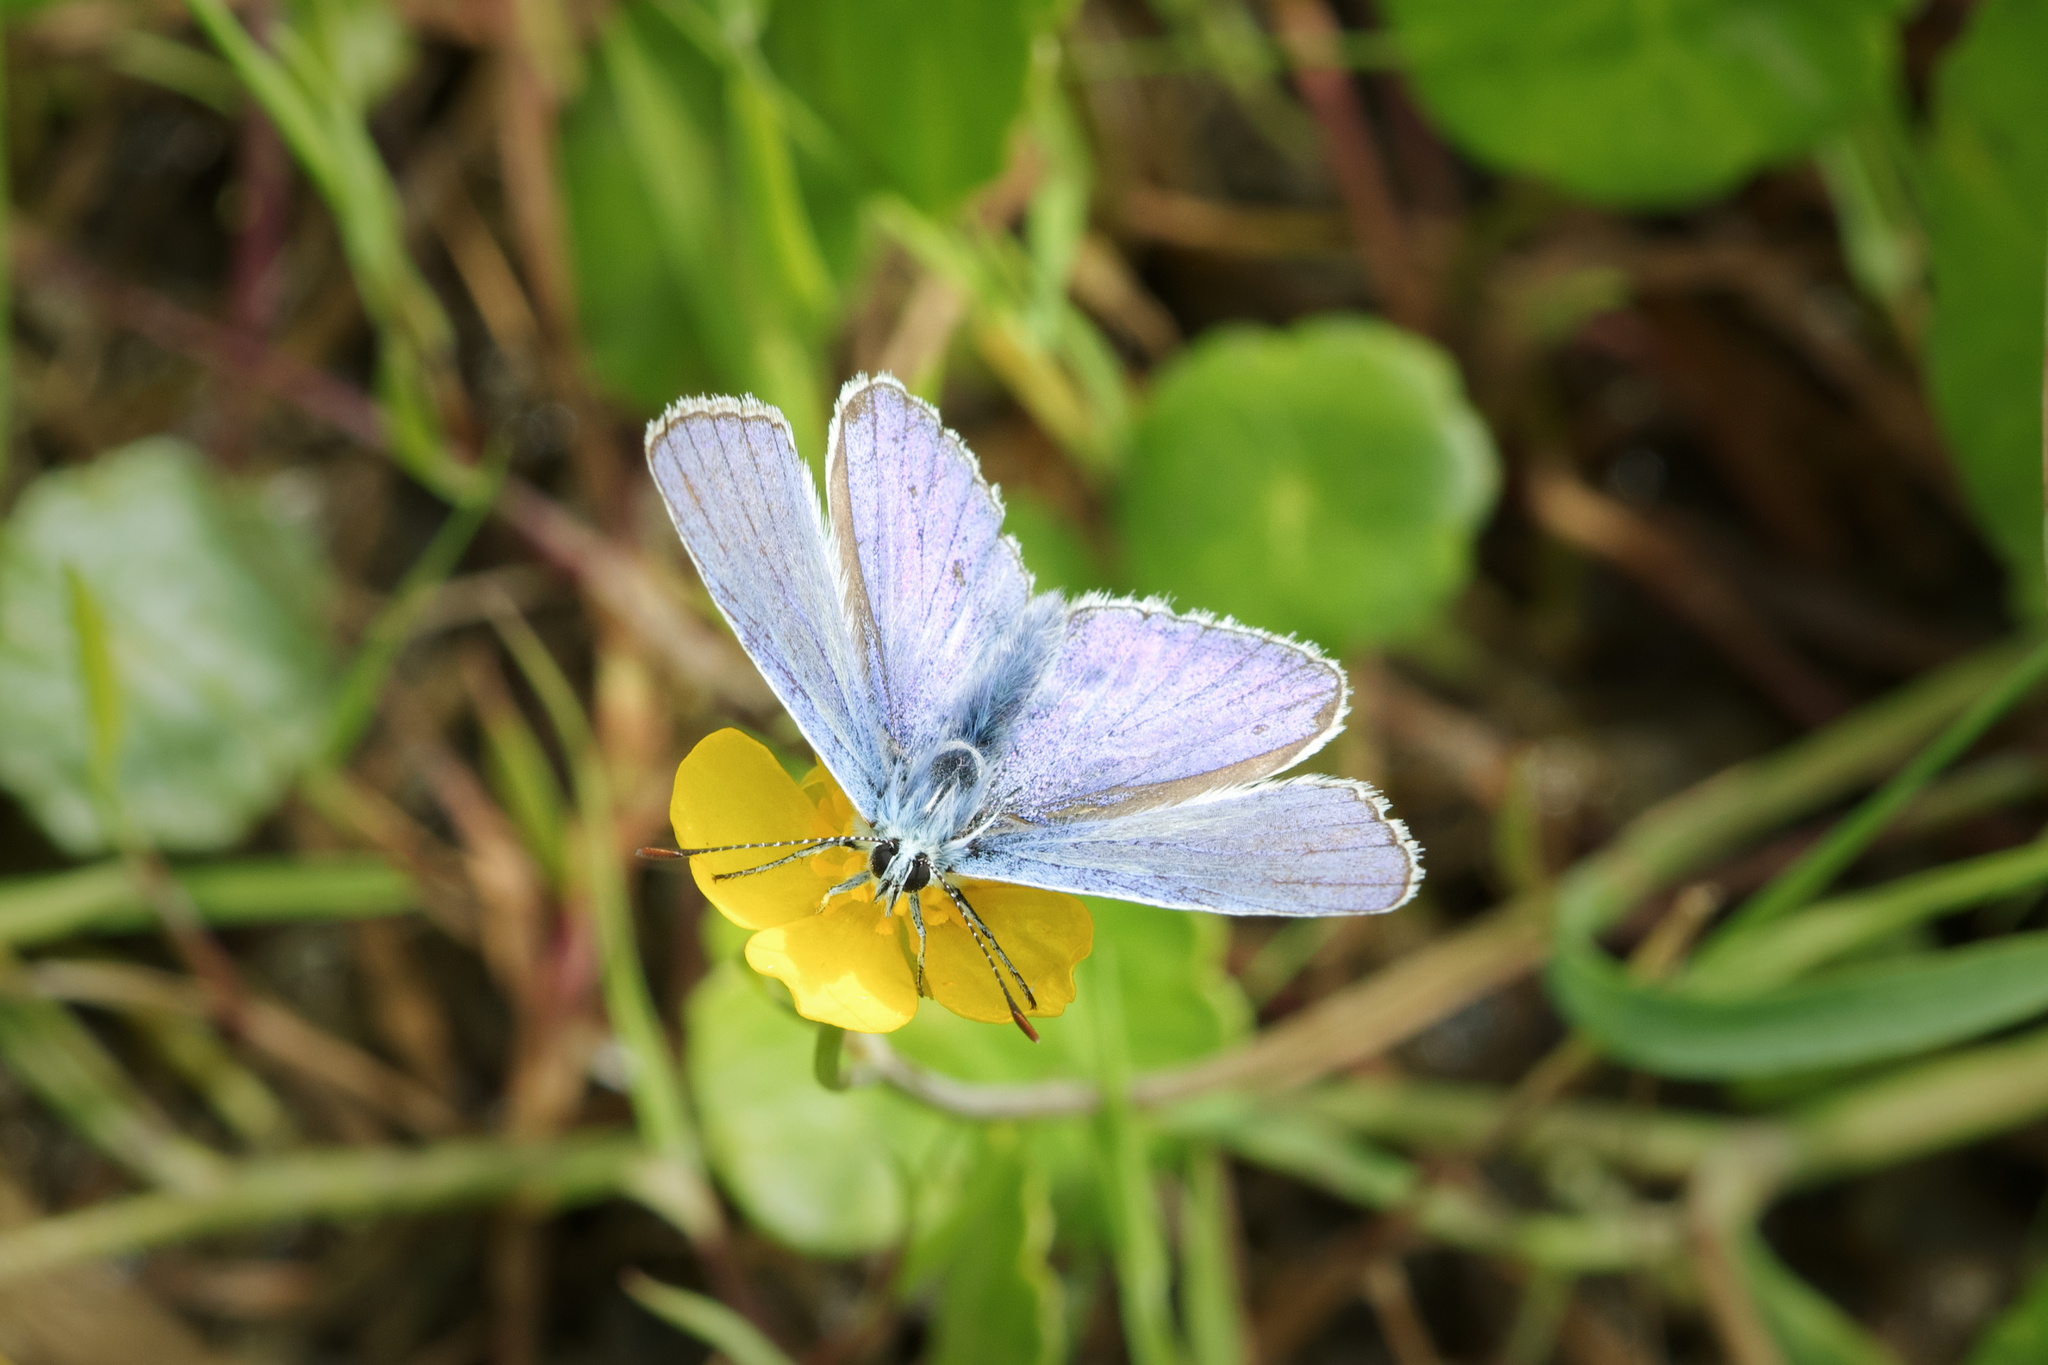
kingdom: Animalia
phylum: Arthropoda
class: Insecta
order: Lepidoptera
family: Lycaenidae
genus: Polyommatus
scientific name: Polyommatus icarus
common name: Common blue
